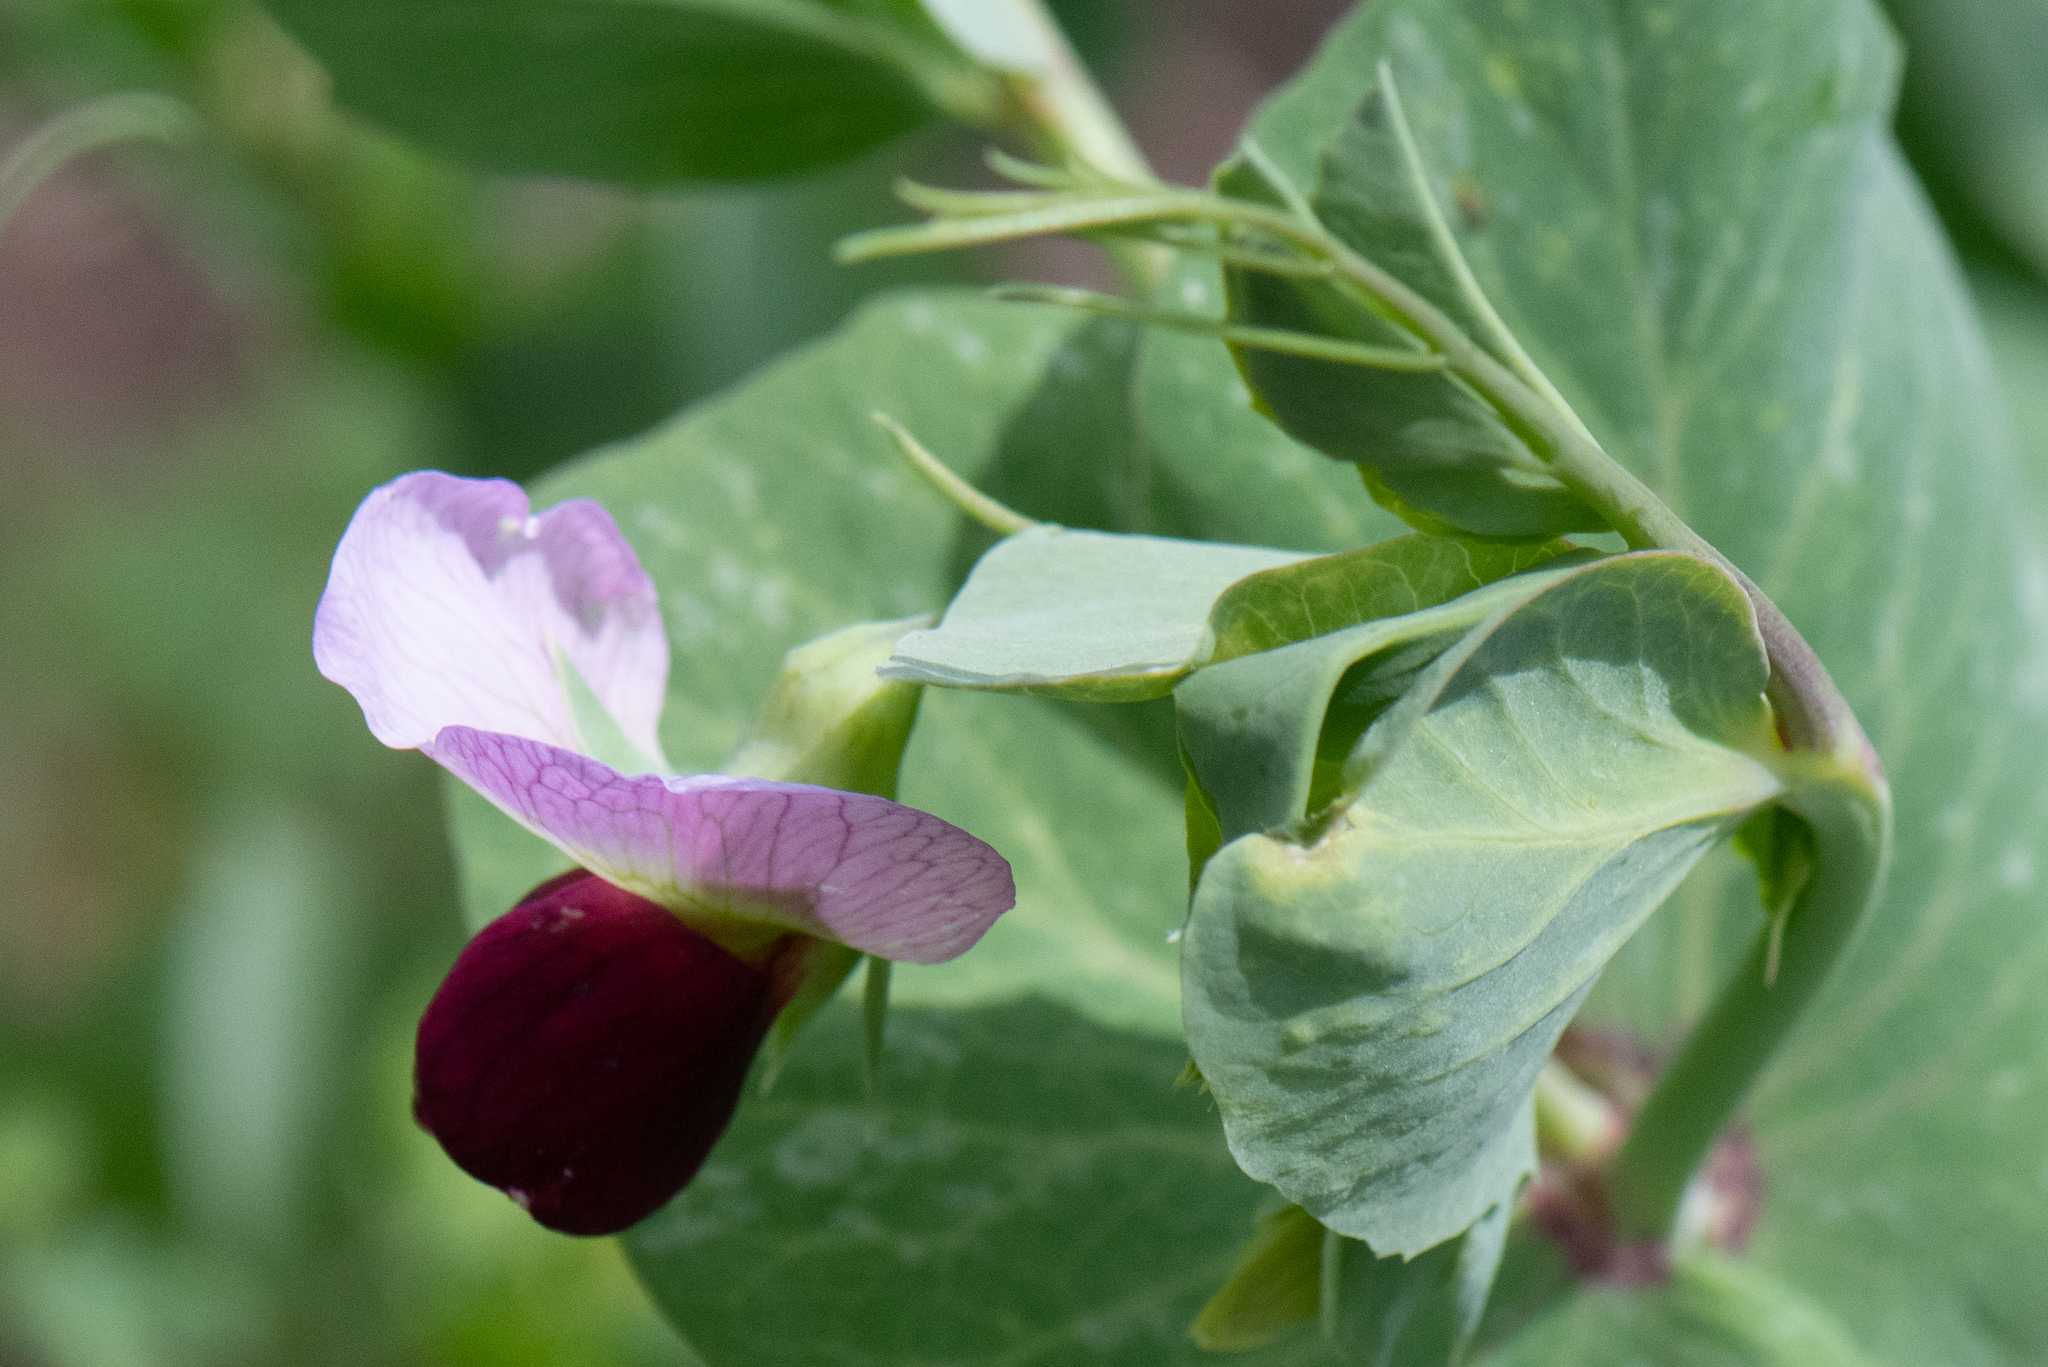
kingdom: Plantae
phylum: Tracheophyta
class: Magnoliopsida
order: Fabales
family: Fabaceae
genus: Lathyrus
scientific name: Lathyrus oleraceus
